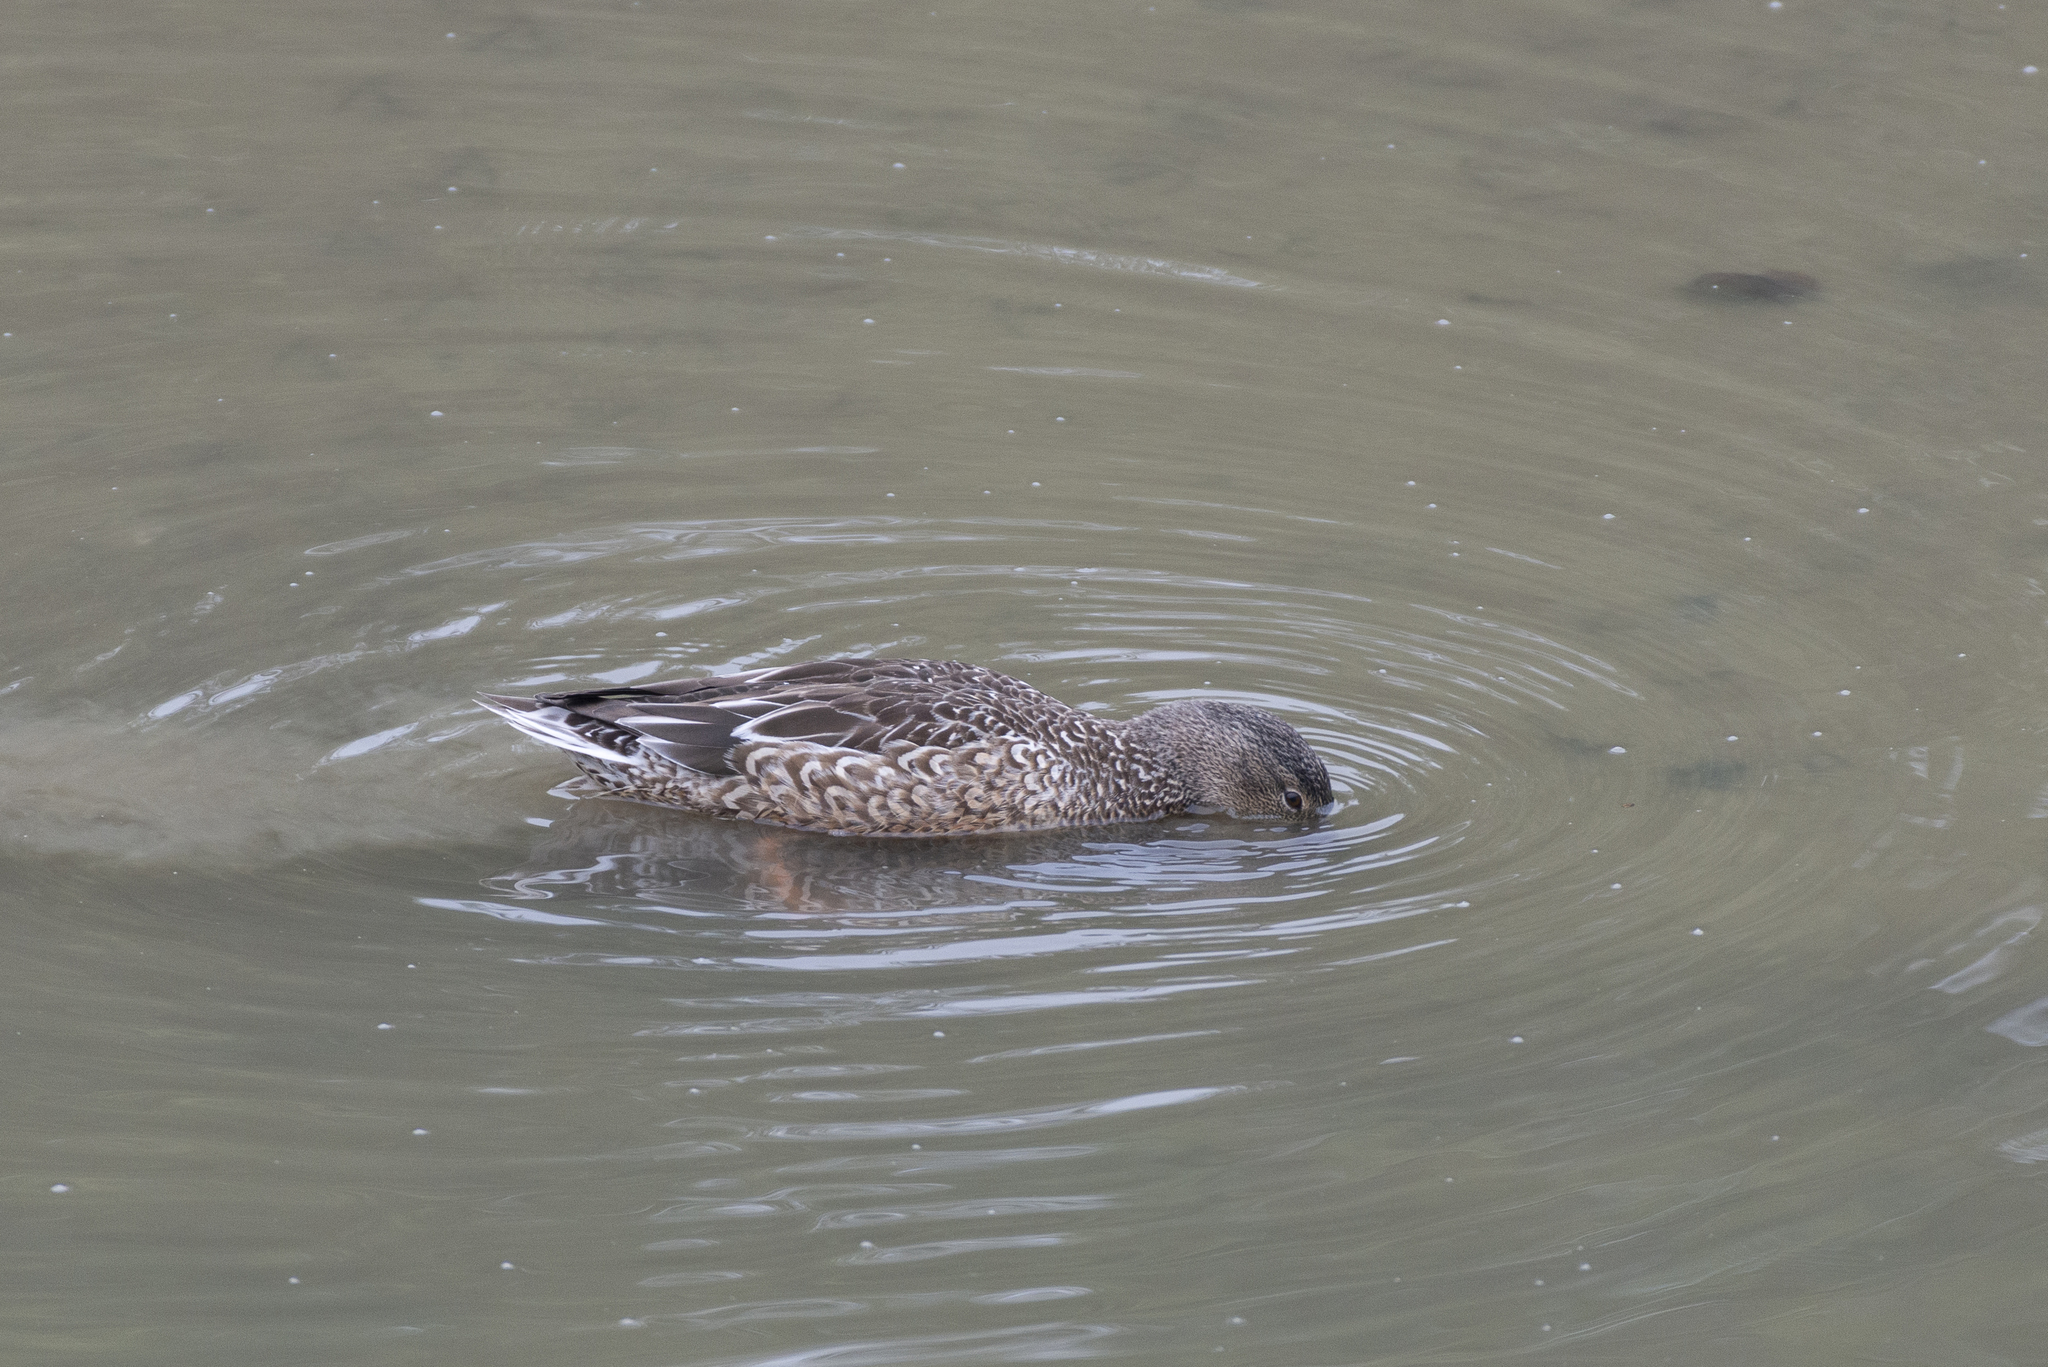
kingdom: Animalia
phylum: Chordata
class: Aves
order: Anseriformes
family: Anatidae
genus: Spatula
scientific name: Spatula clypeata
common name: Northern shoveler
